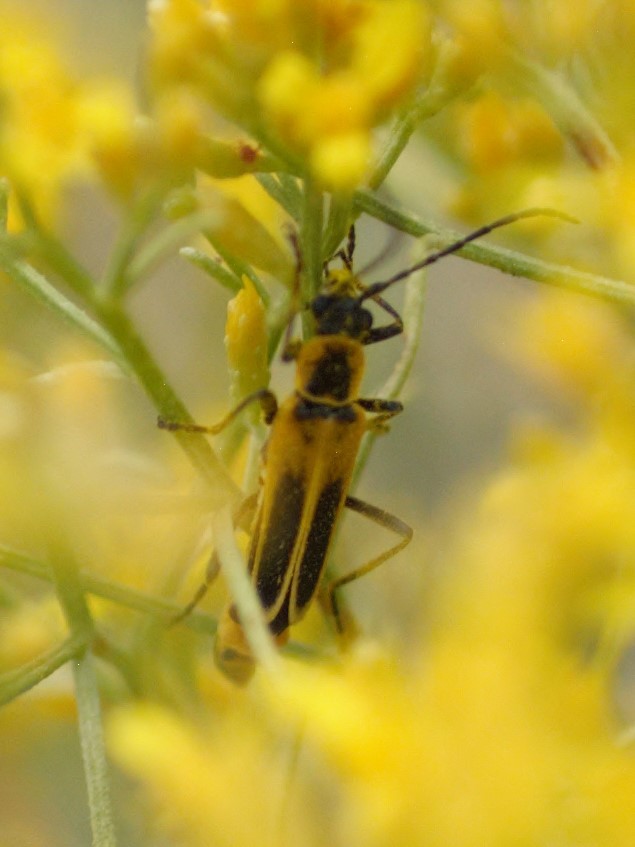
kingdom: Animalia
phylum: Arthropoda
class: Insecta
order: Coleoptera
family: Cantharidae
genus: Chauliognathus
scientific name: Chauliognathus lewisi
